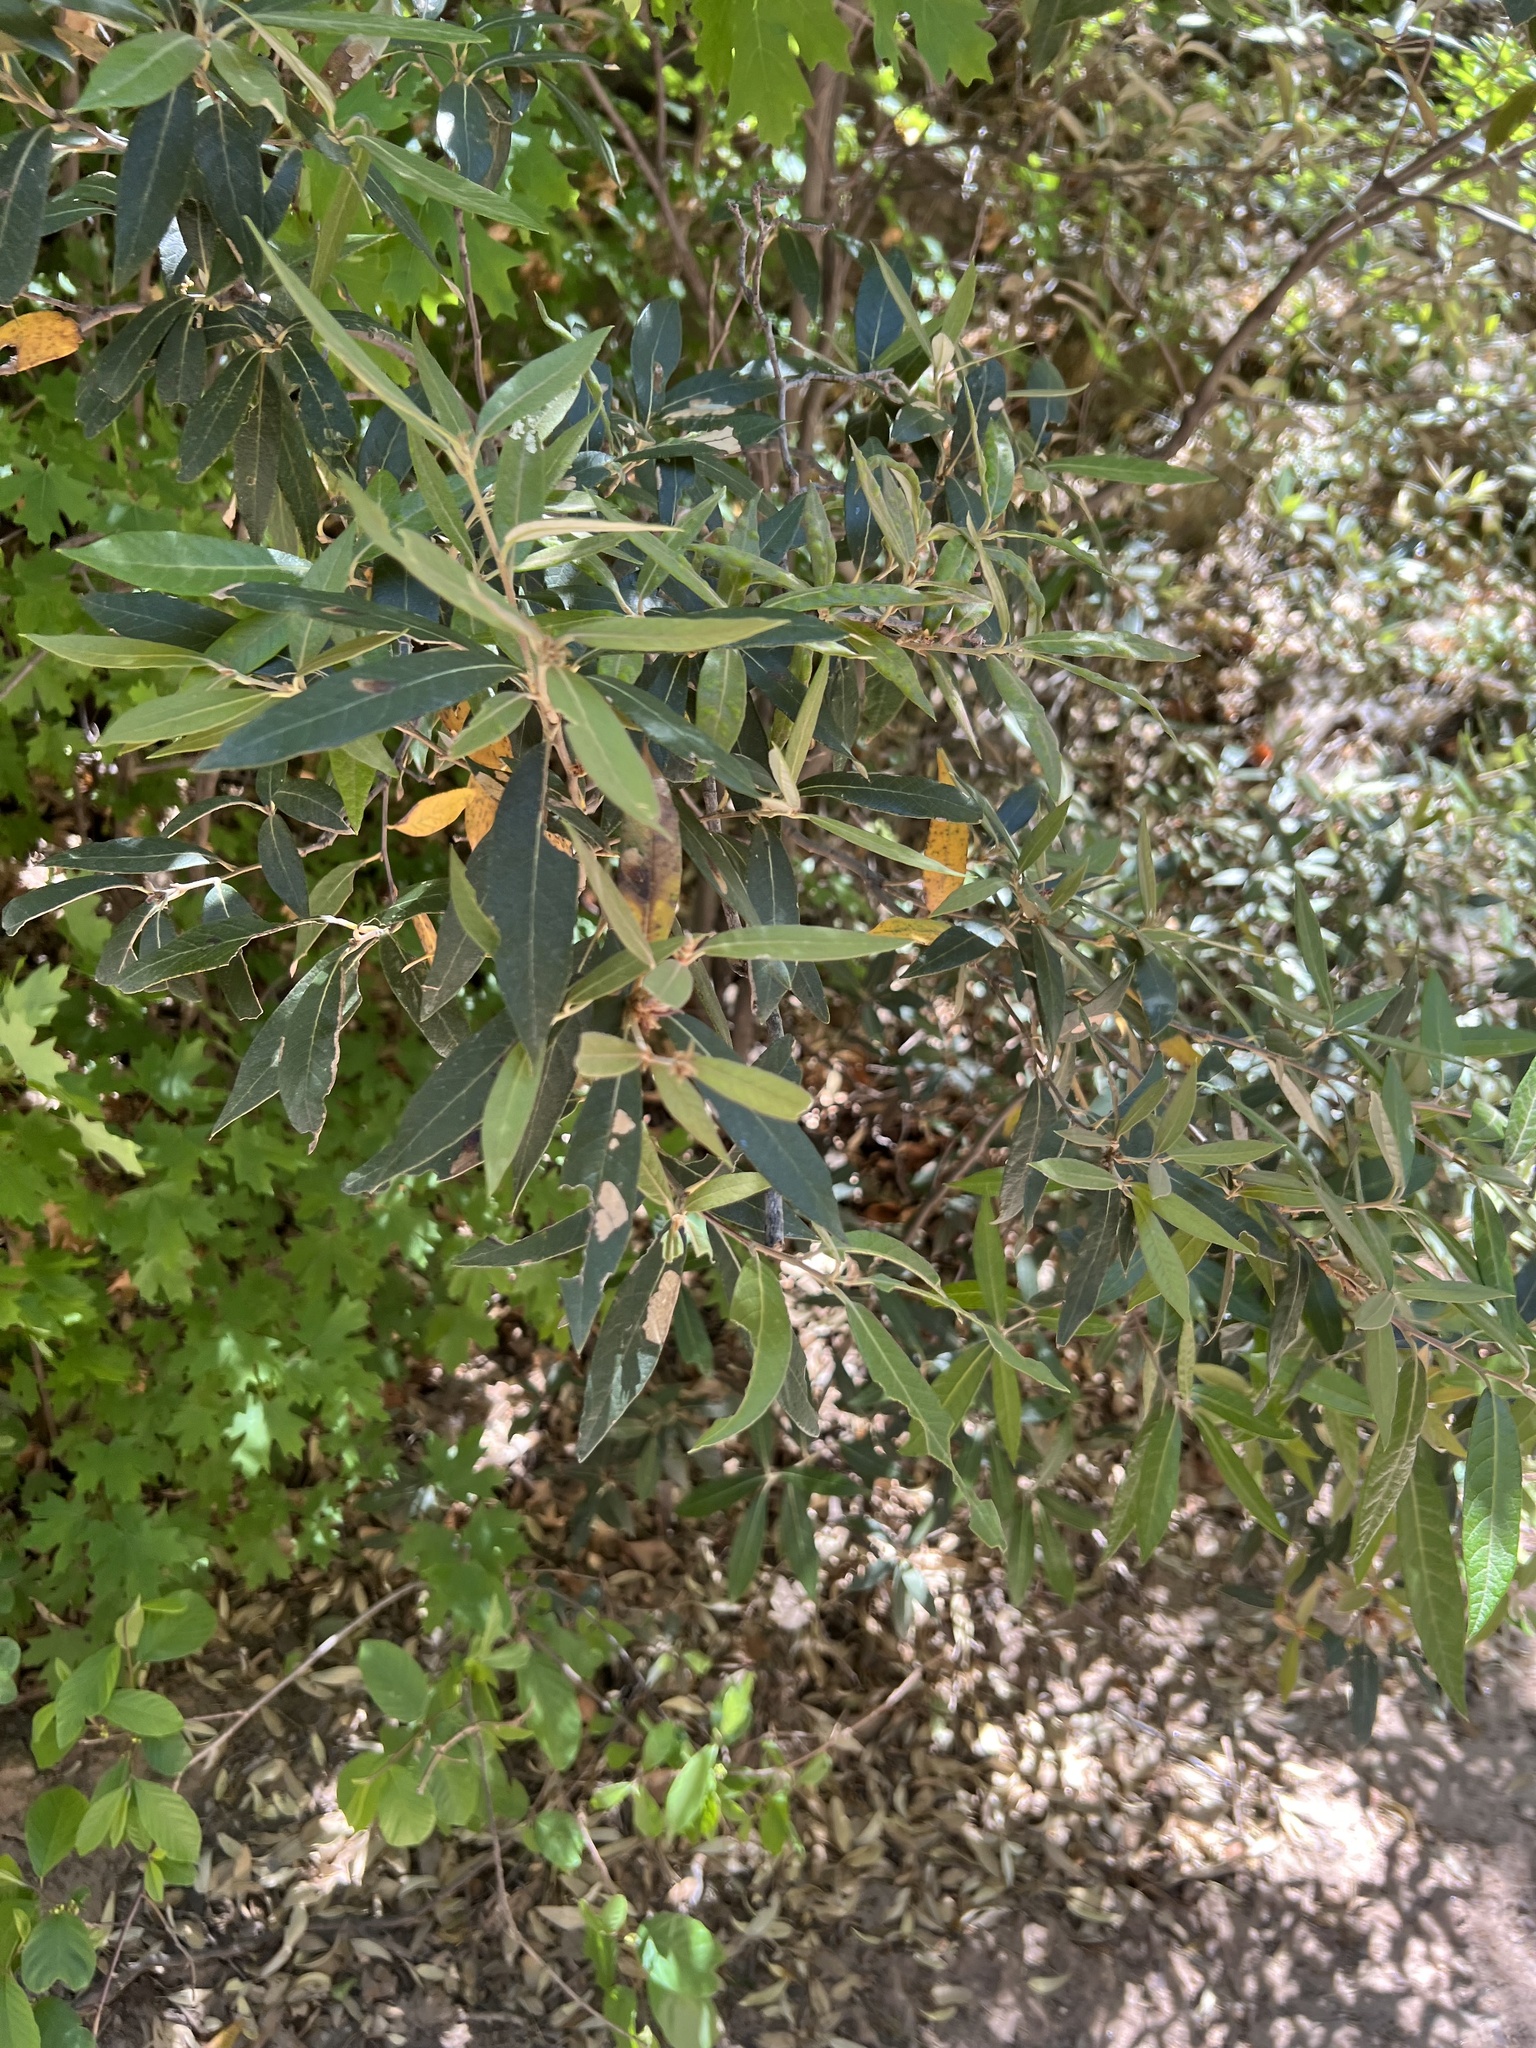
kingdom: Plantae
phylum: Tracheophyta
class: Magnoliopsida
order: Fagales
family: Fagaceae
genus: Quercus
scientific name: Quercus hypoleucoides
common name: Silverleaf oak
